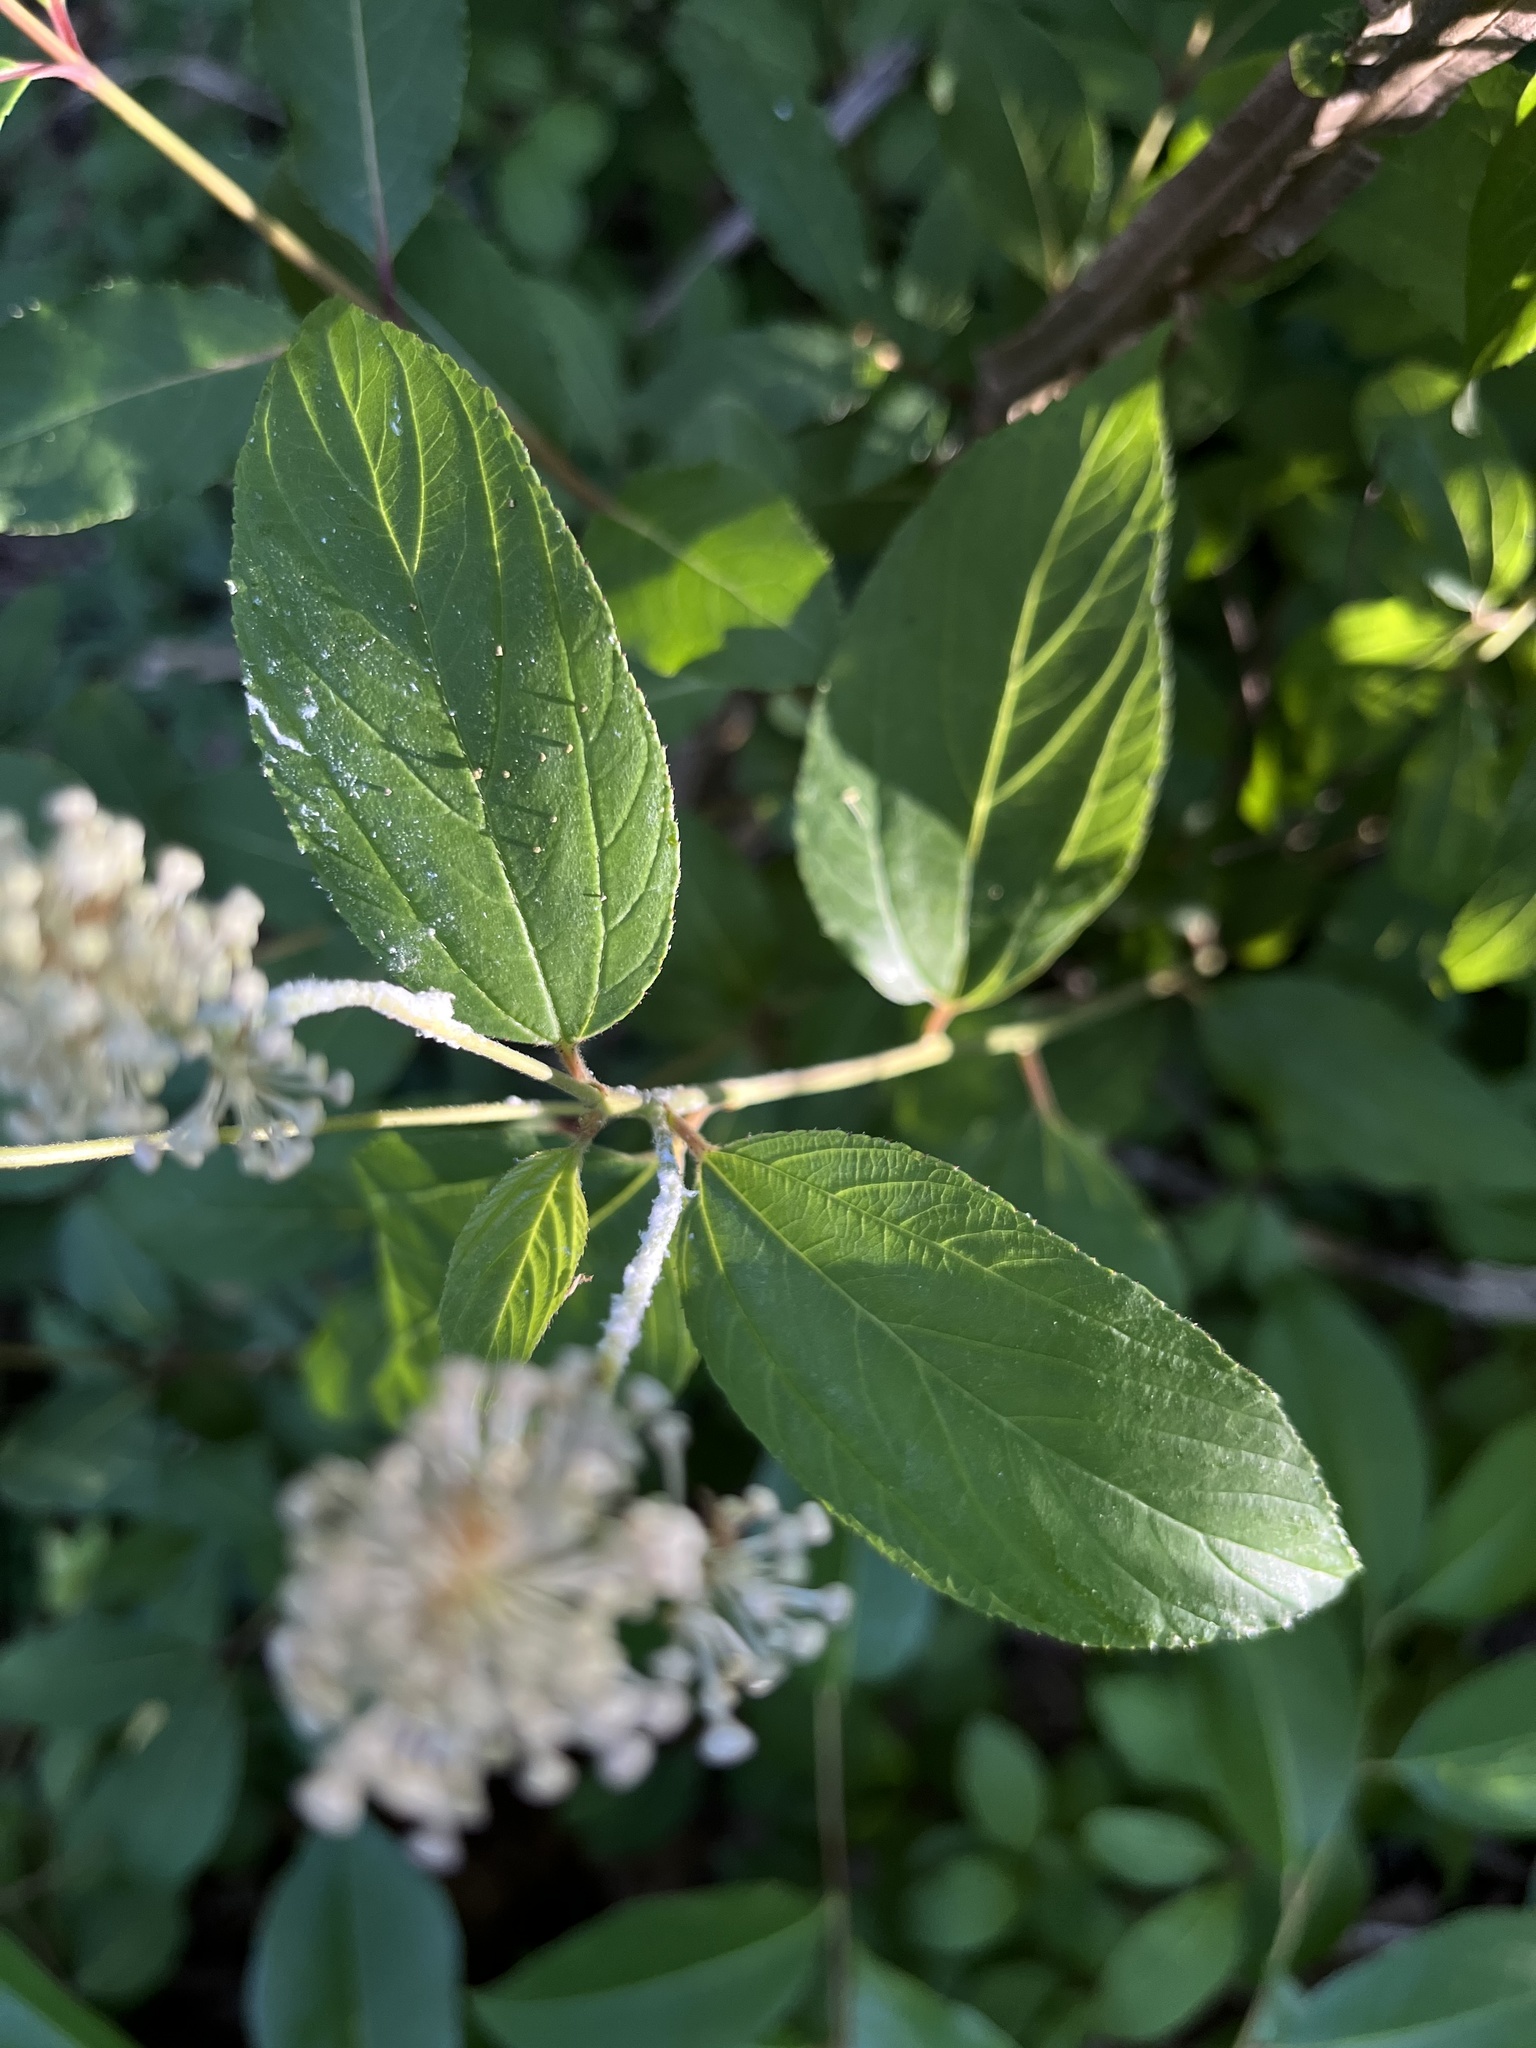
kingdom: Plantae
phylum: Tracheophyta
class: Magnoliopsida
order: Rosales
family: Rhamnaceae
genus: Ceanothus
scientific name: Ceanothus americanus
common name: Redroot
